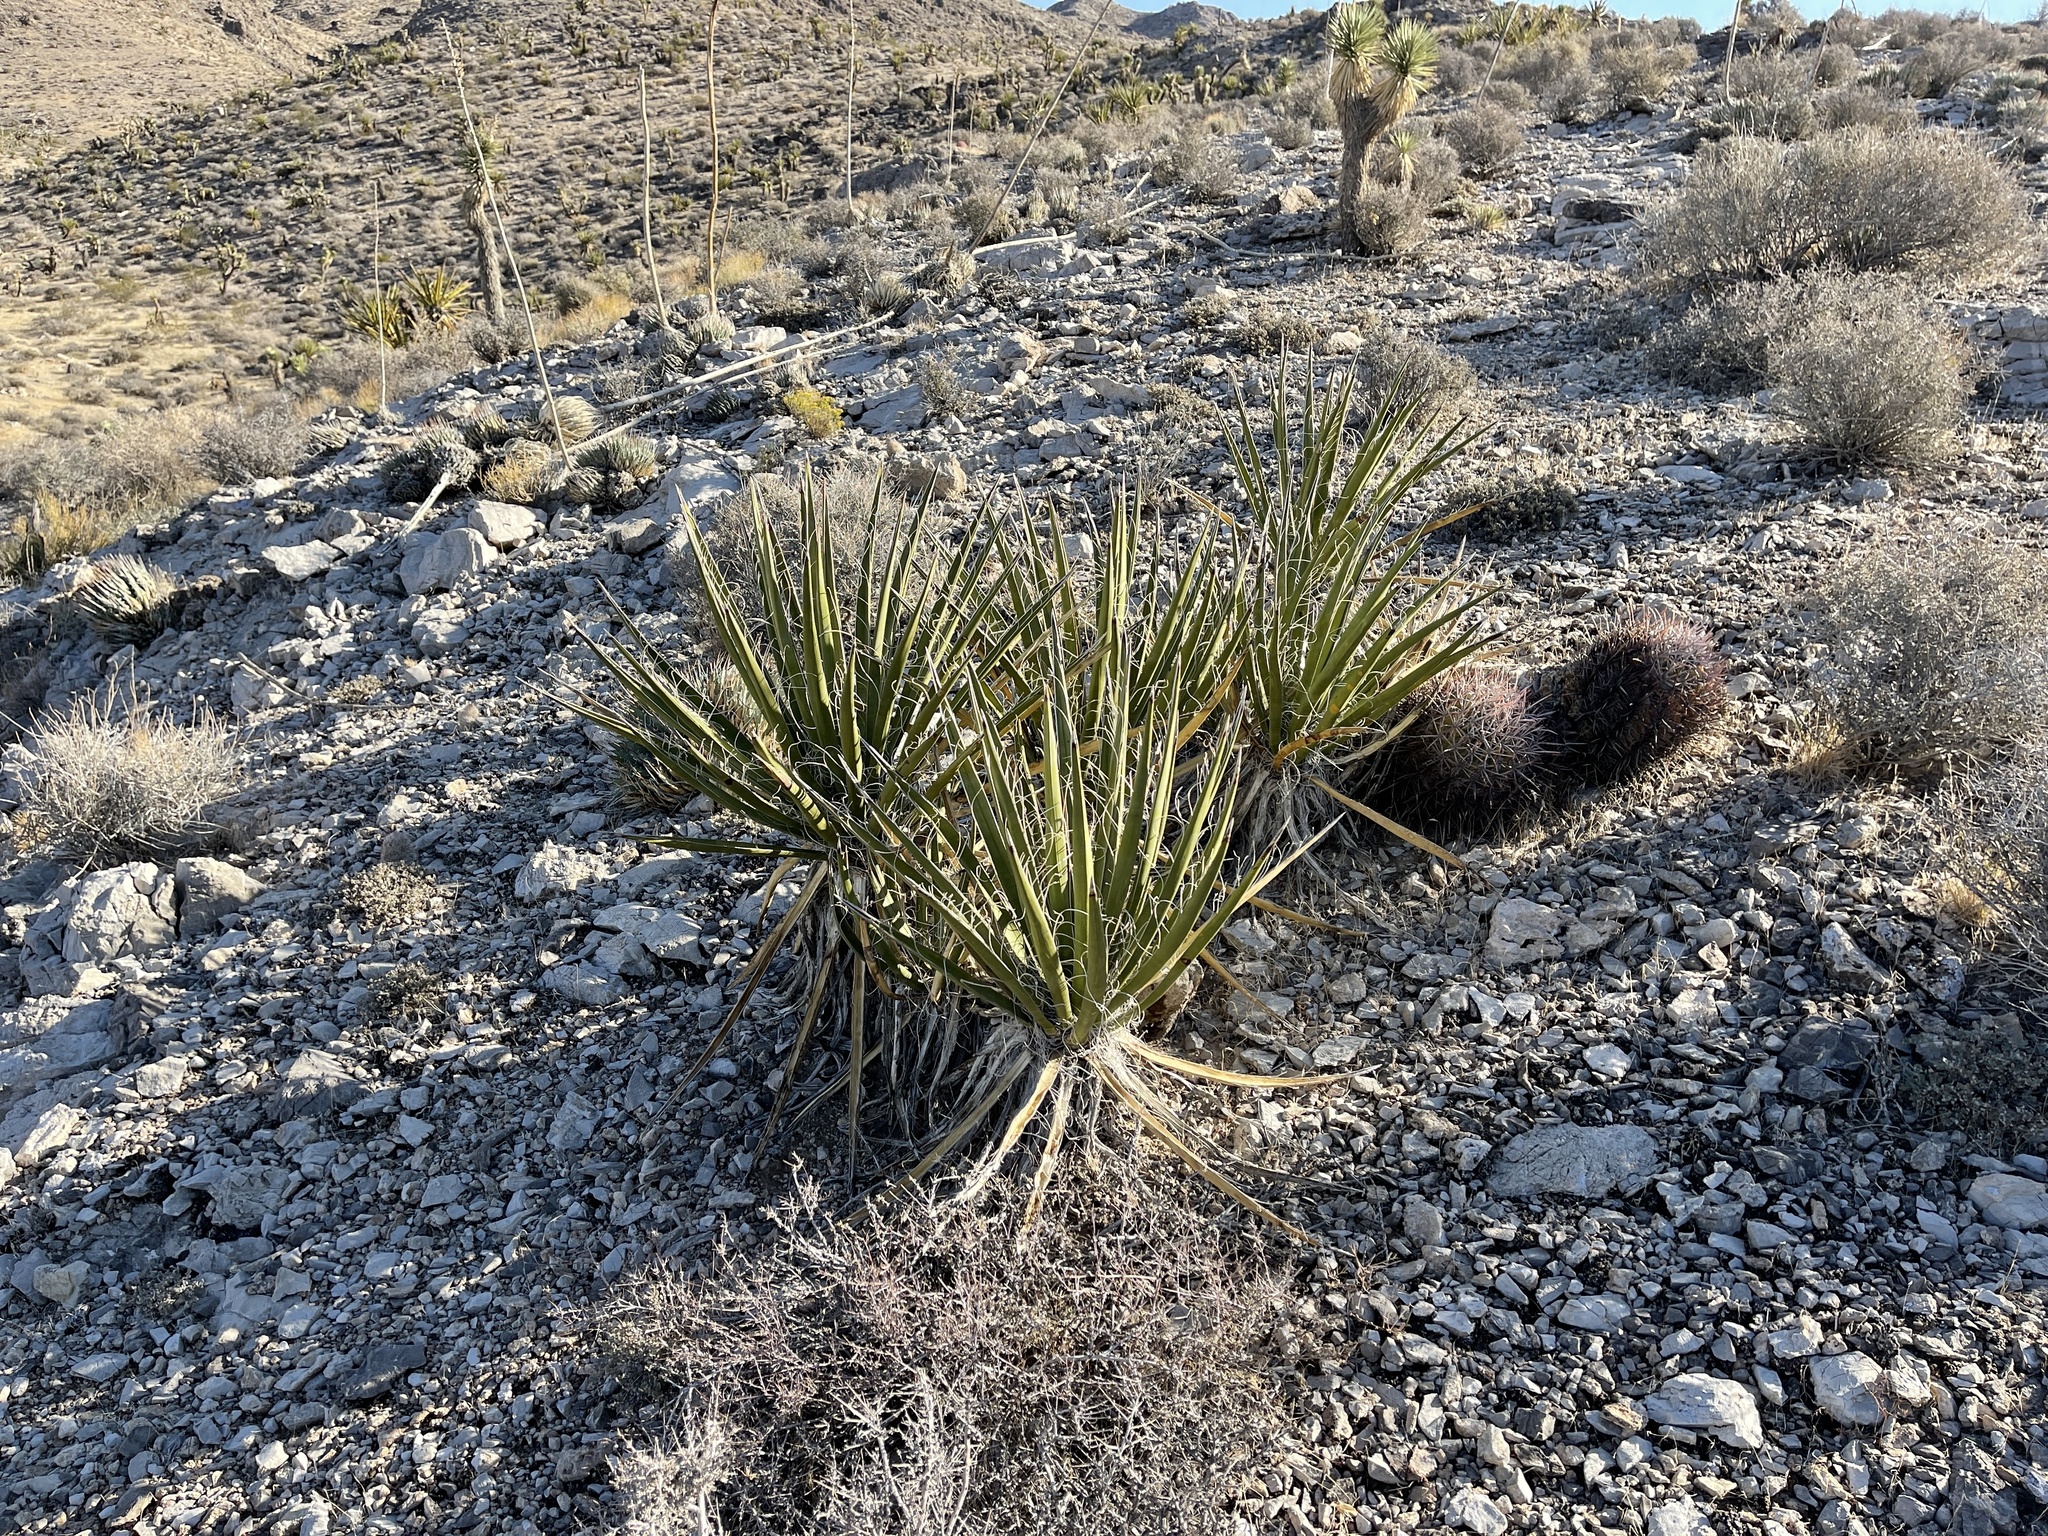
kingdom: Plantae
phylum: Tracheophyta
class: Liliopsida
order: Asparagales
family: Asparagaceae
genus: Yucca
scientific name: Yucca schidigera
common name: Mojave yucca
